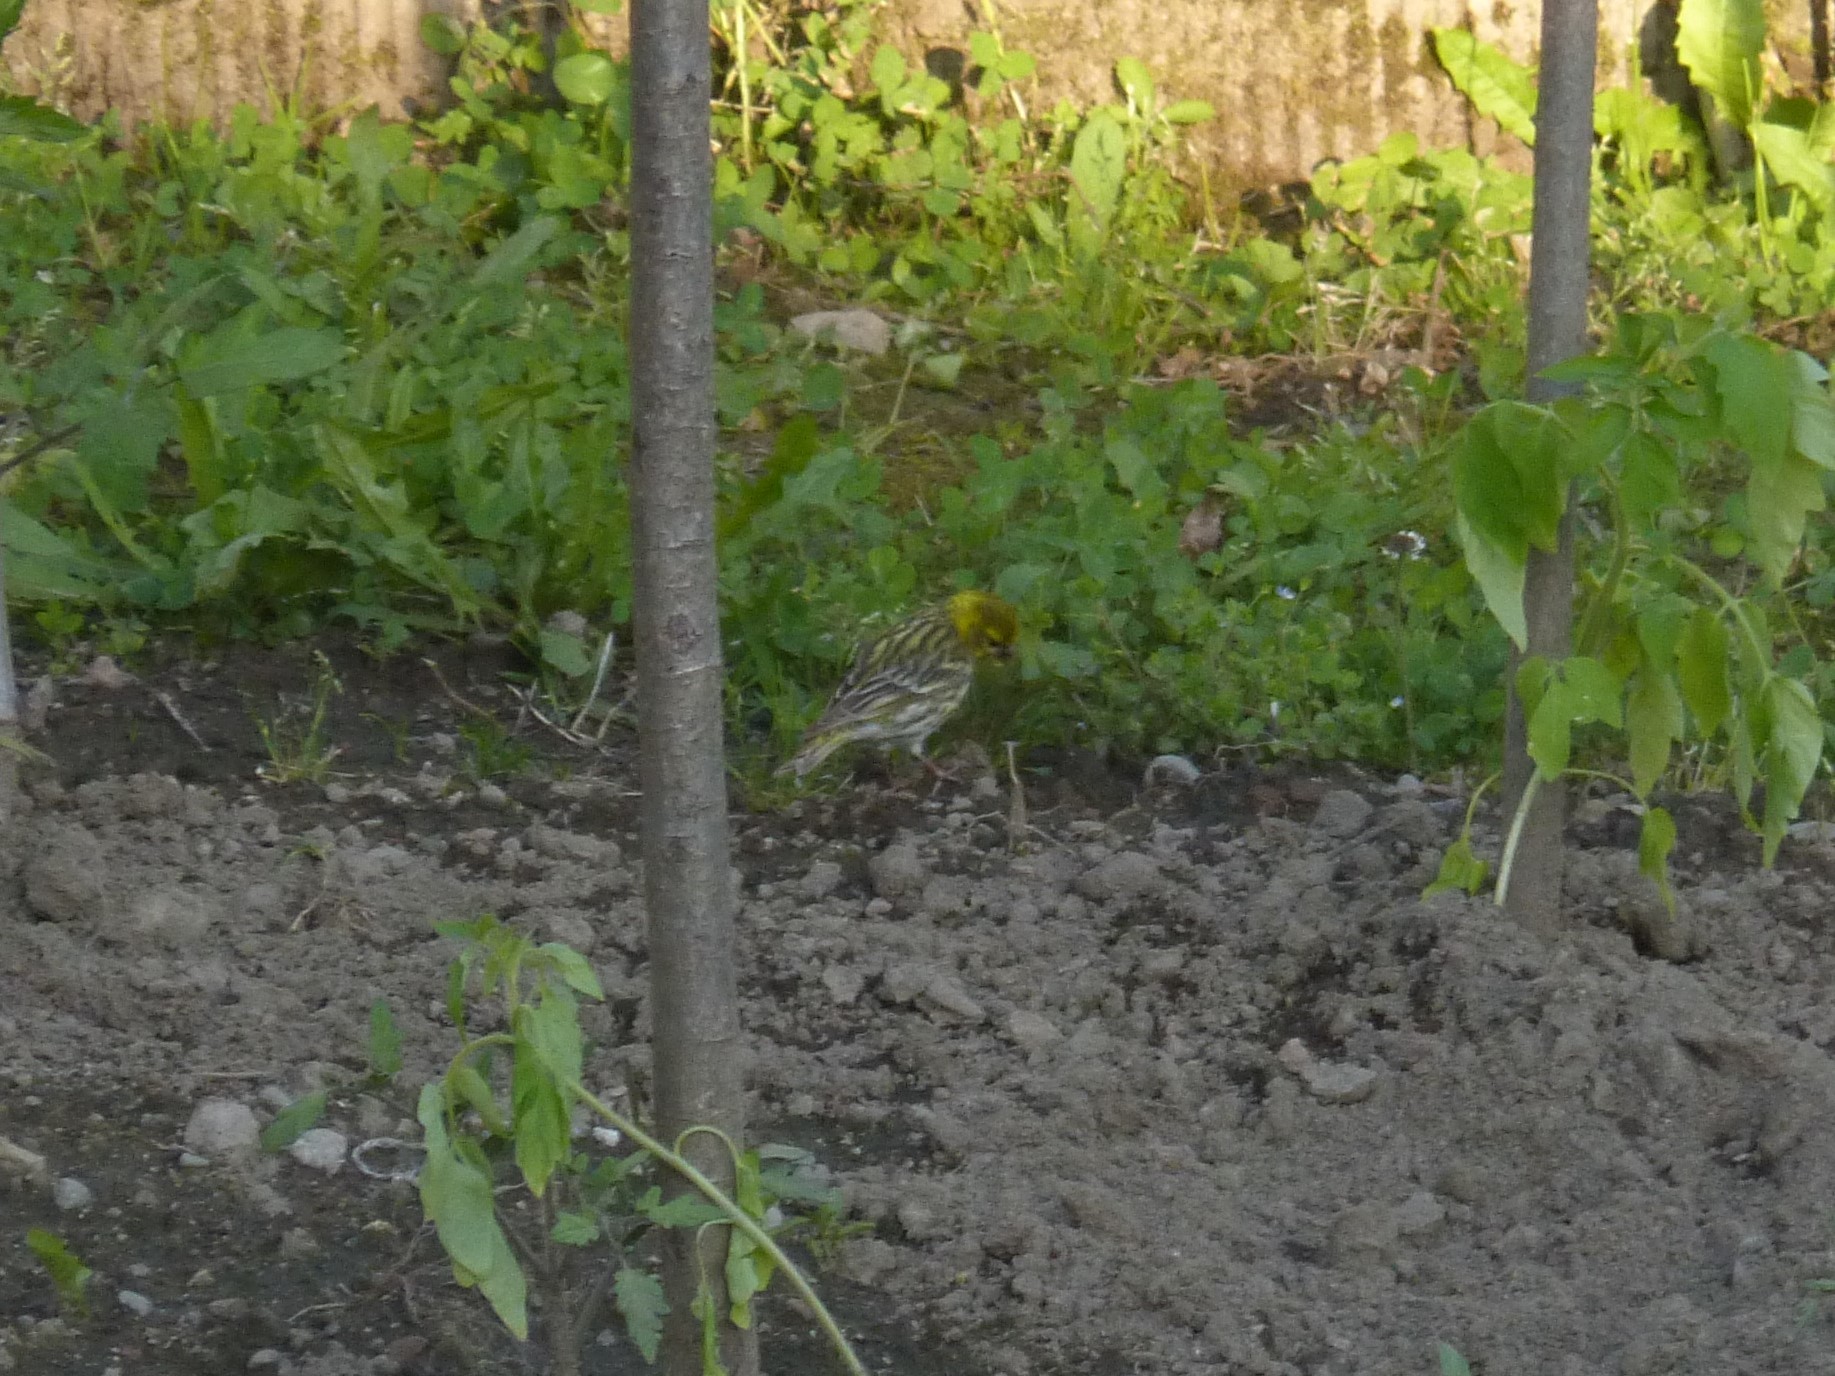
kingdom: Animalia
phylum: Chordata
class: Aves
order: Passeriformes
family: Fringillidae
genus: Serinus
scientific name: Serinus serinus
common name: European serin
